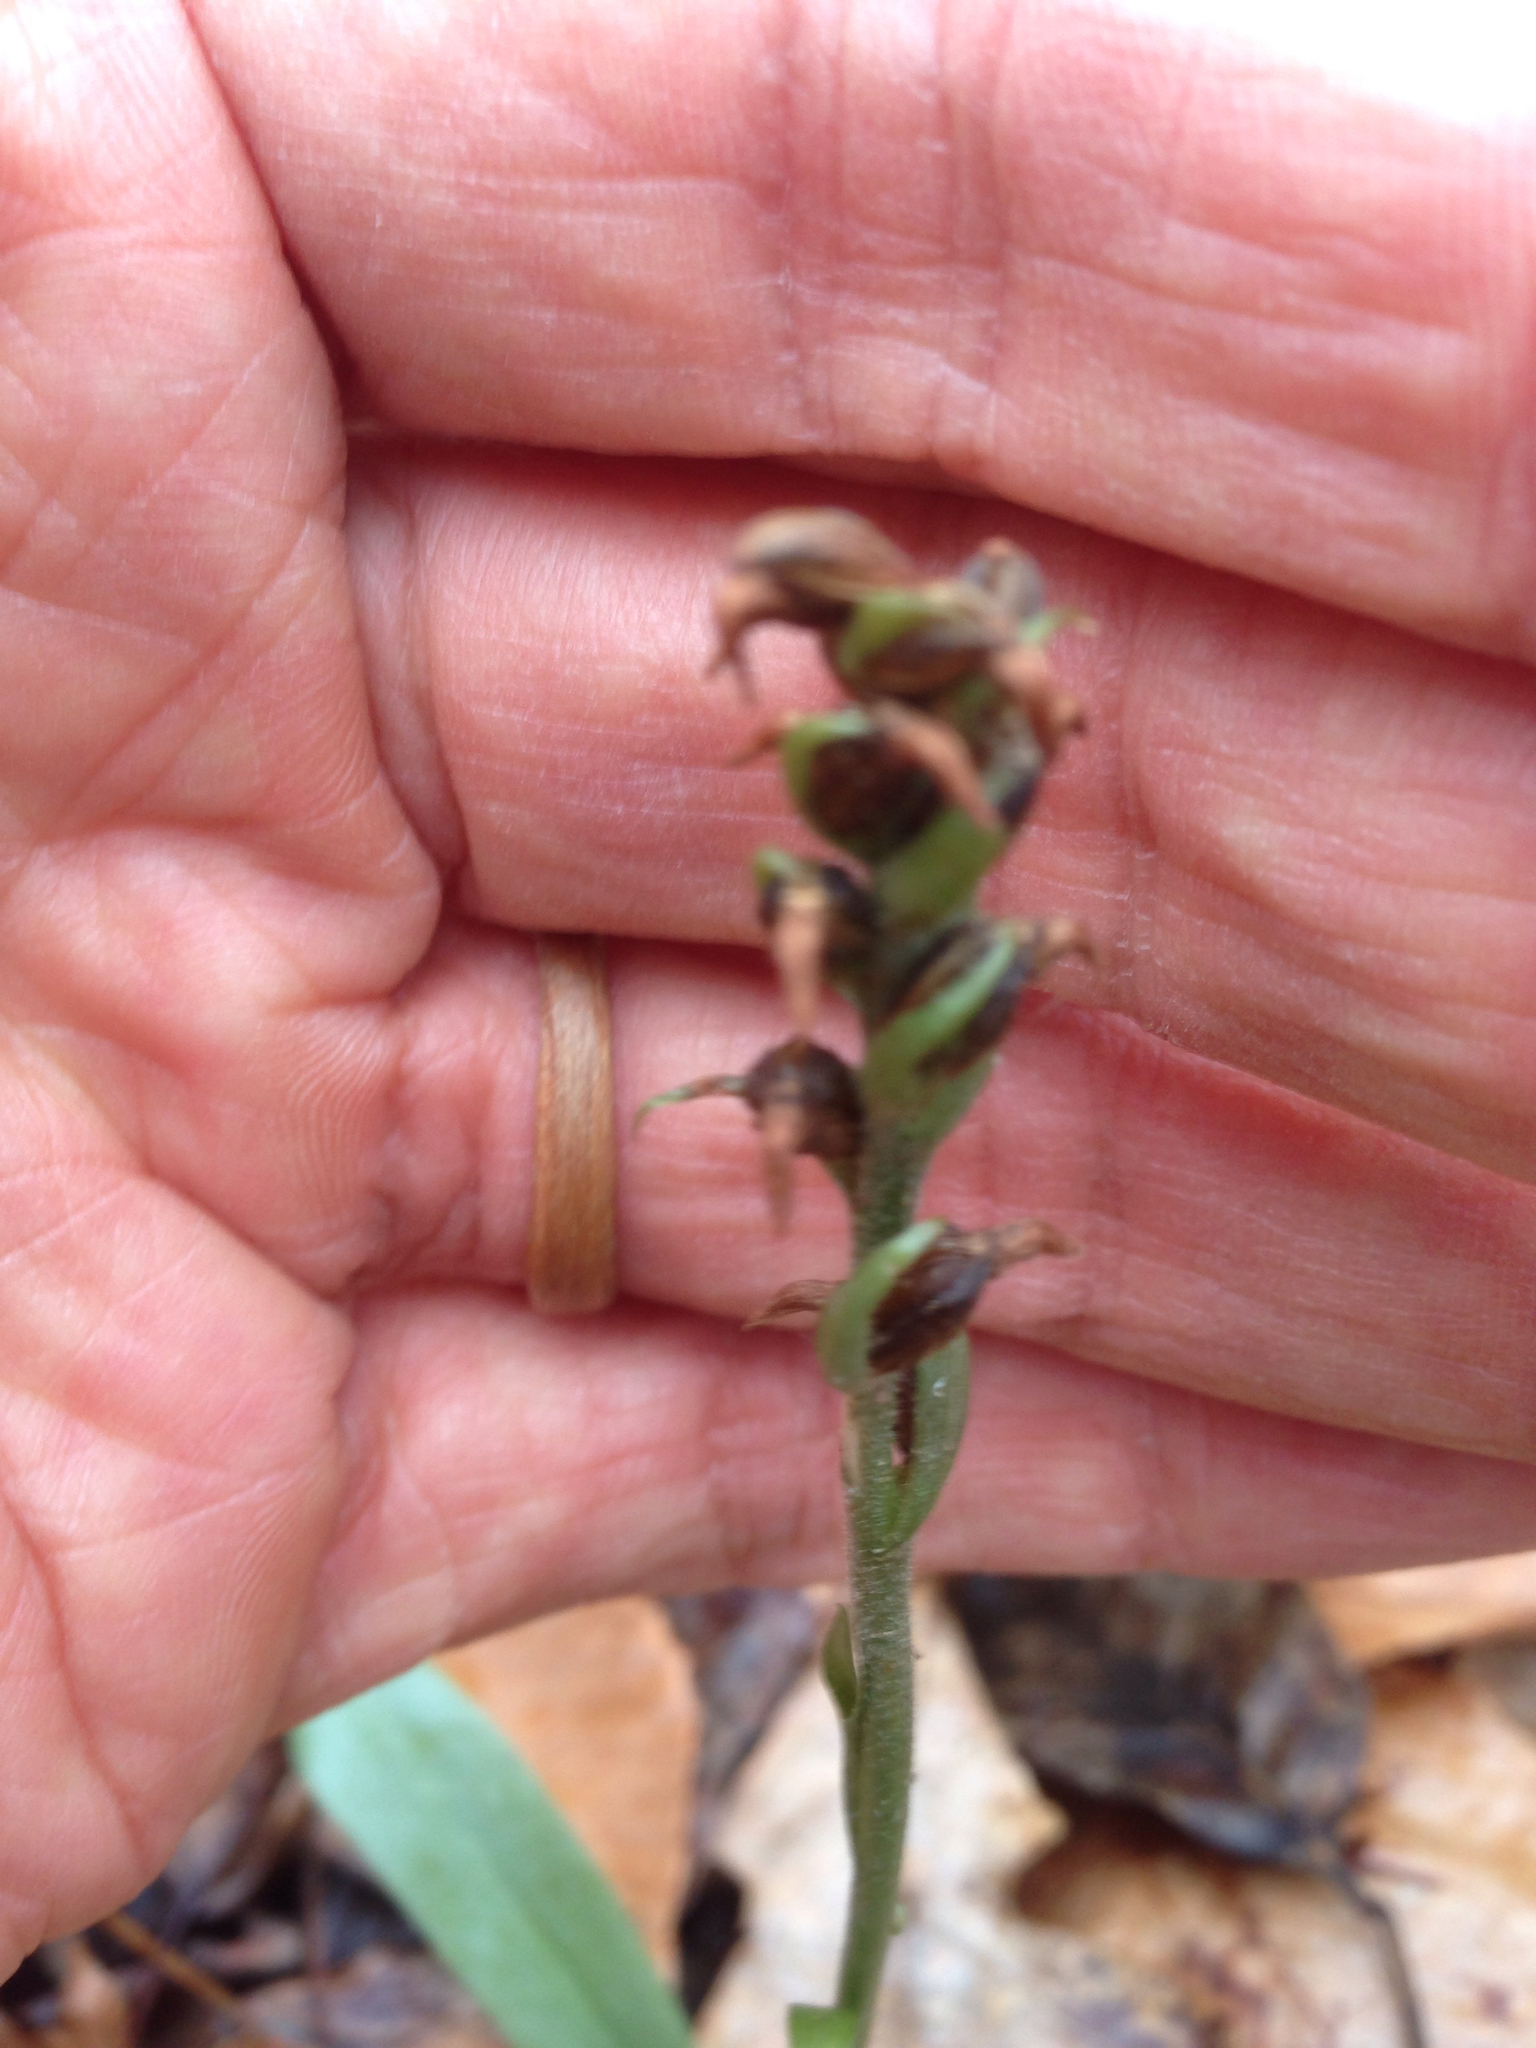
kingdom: Plantae
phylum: Tracheophyta
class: Liliopsida
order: Asparagales
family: Orchidaceae
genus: Spiranthes
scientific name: Spiranthes ovalis
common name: October ladies'-tresses
